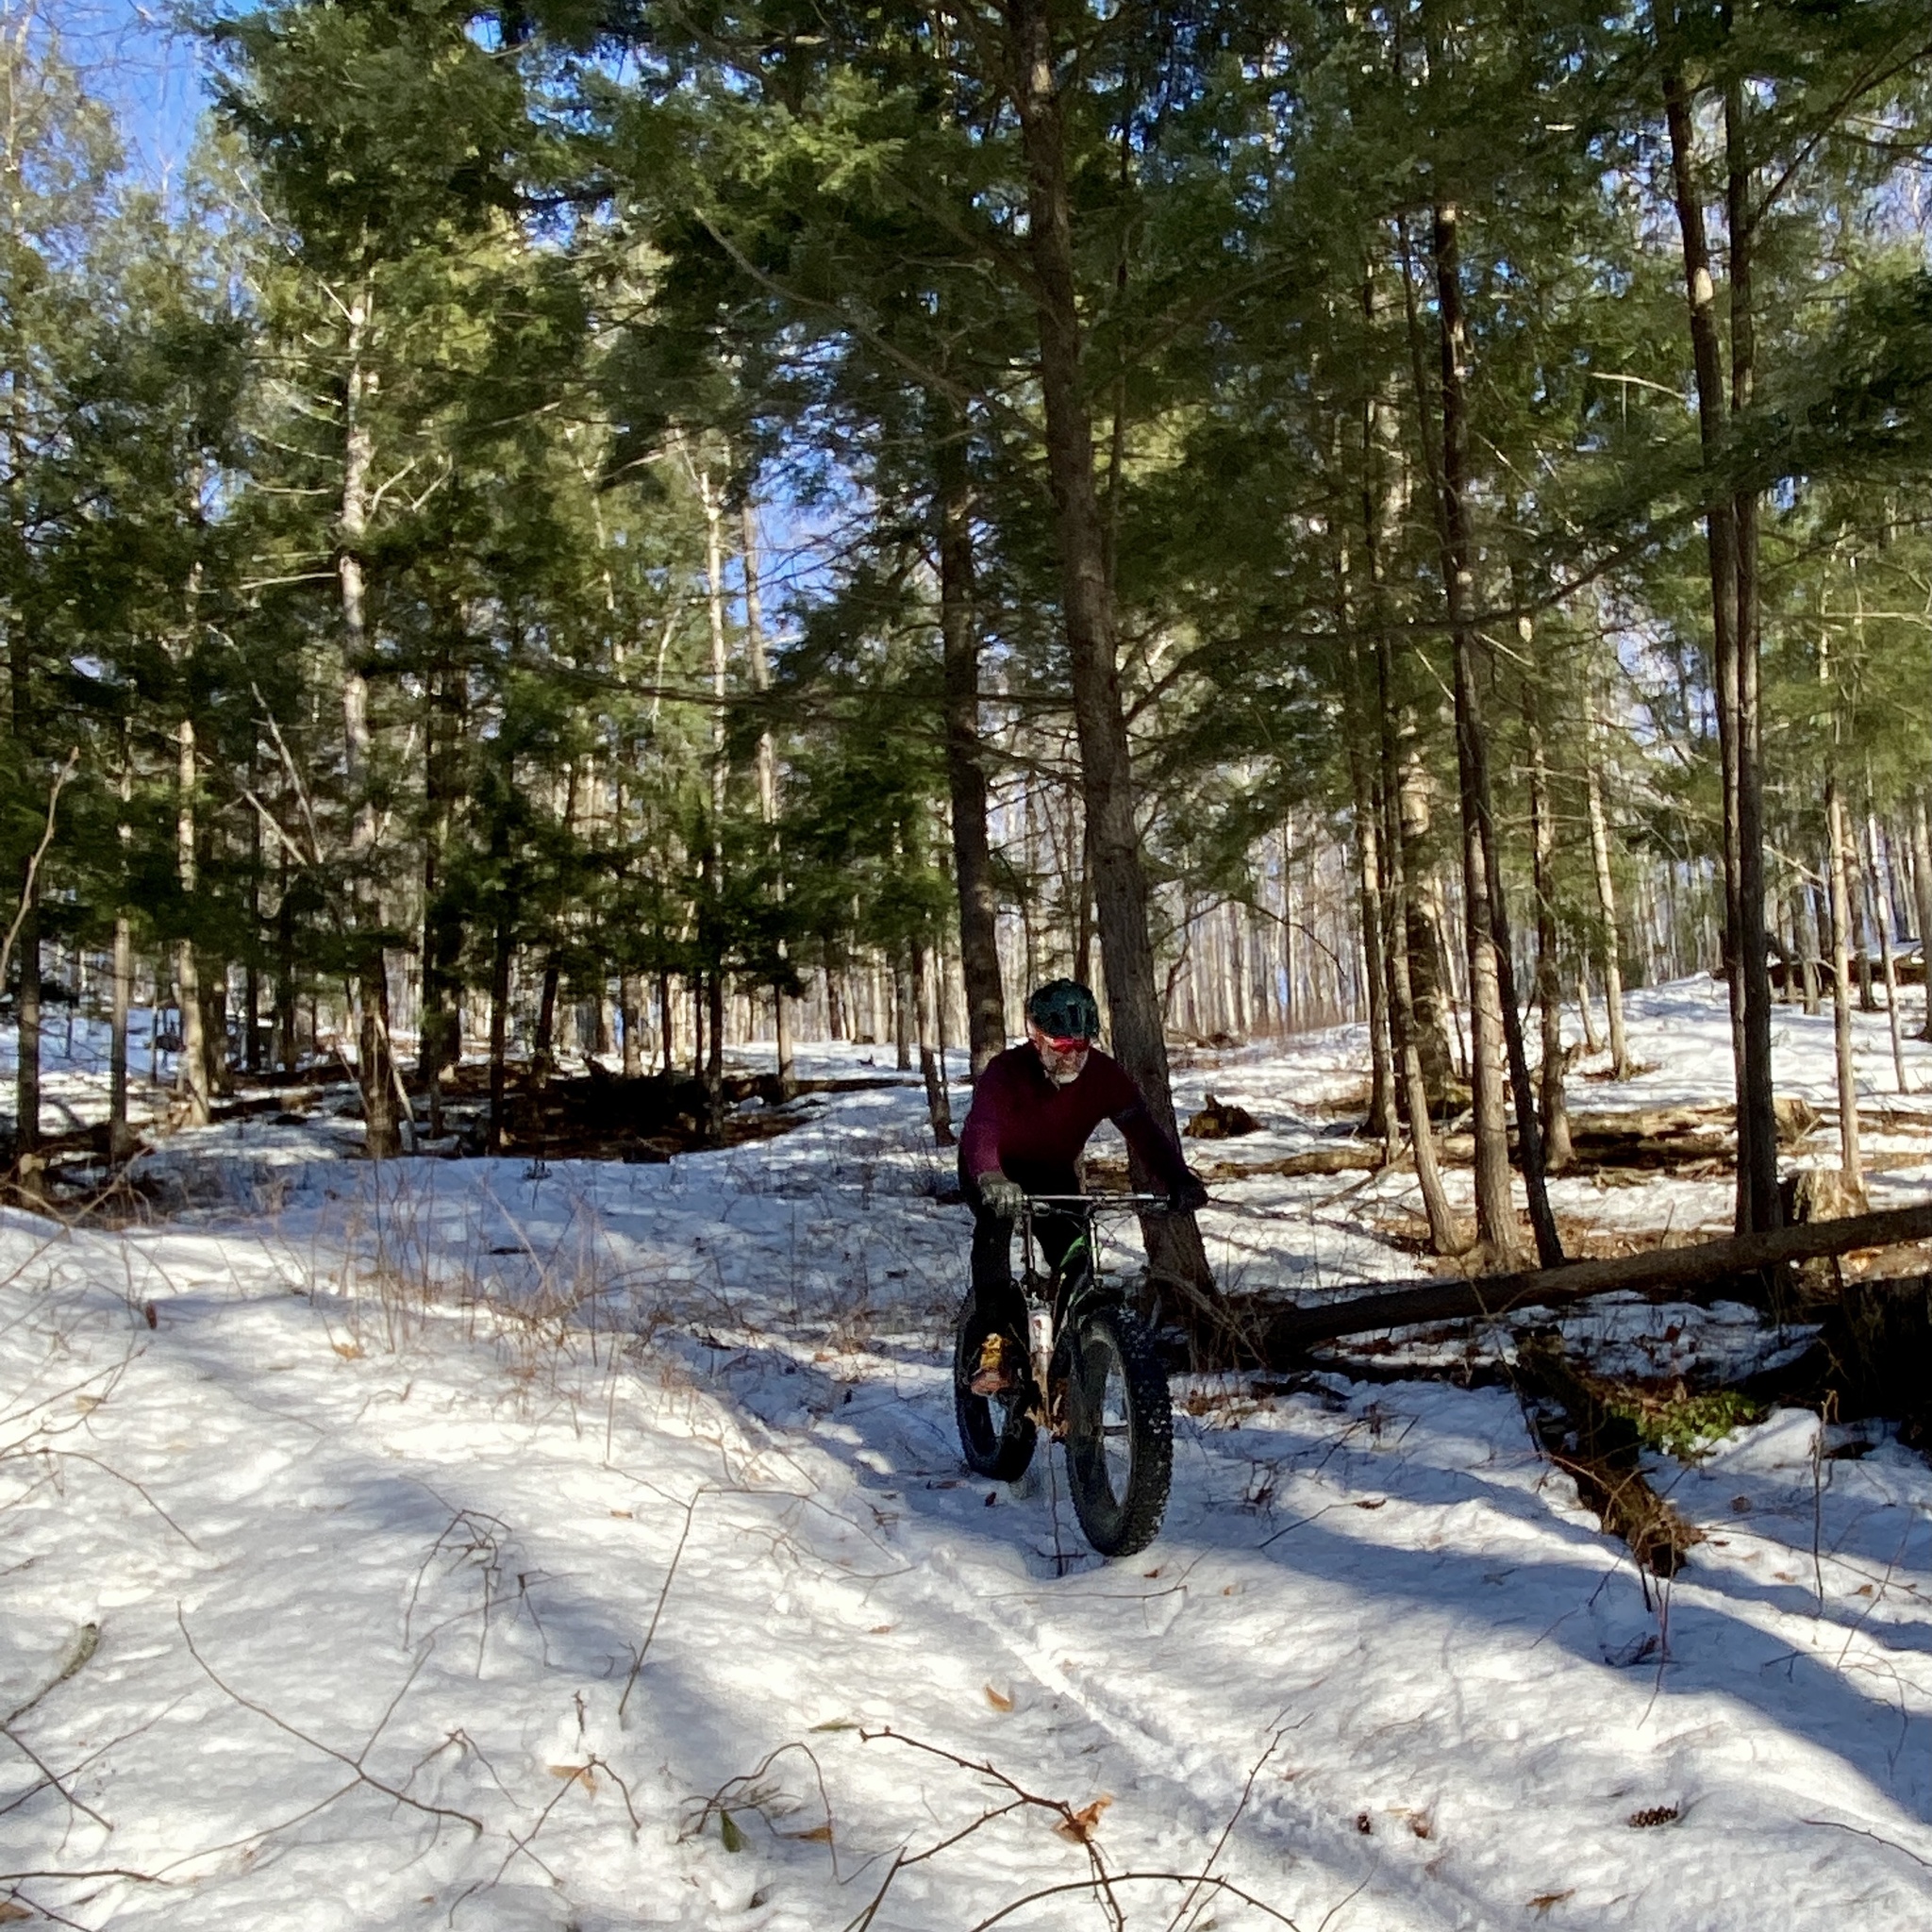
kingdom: Plantae
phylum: Tracheophyta
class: Pinopsida
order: Pinales
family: Pinaceae
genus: Tsuga
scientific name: Tsuga canadensis
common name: Eastern hemlock
